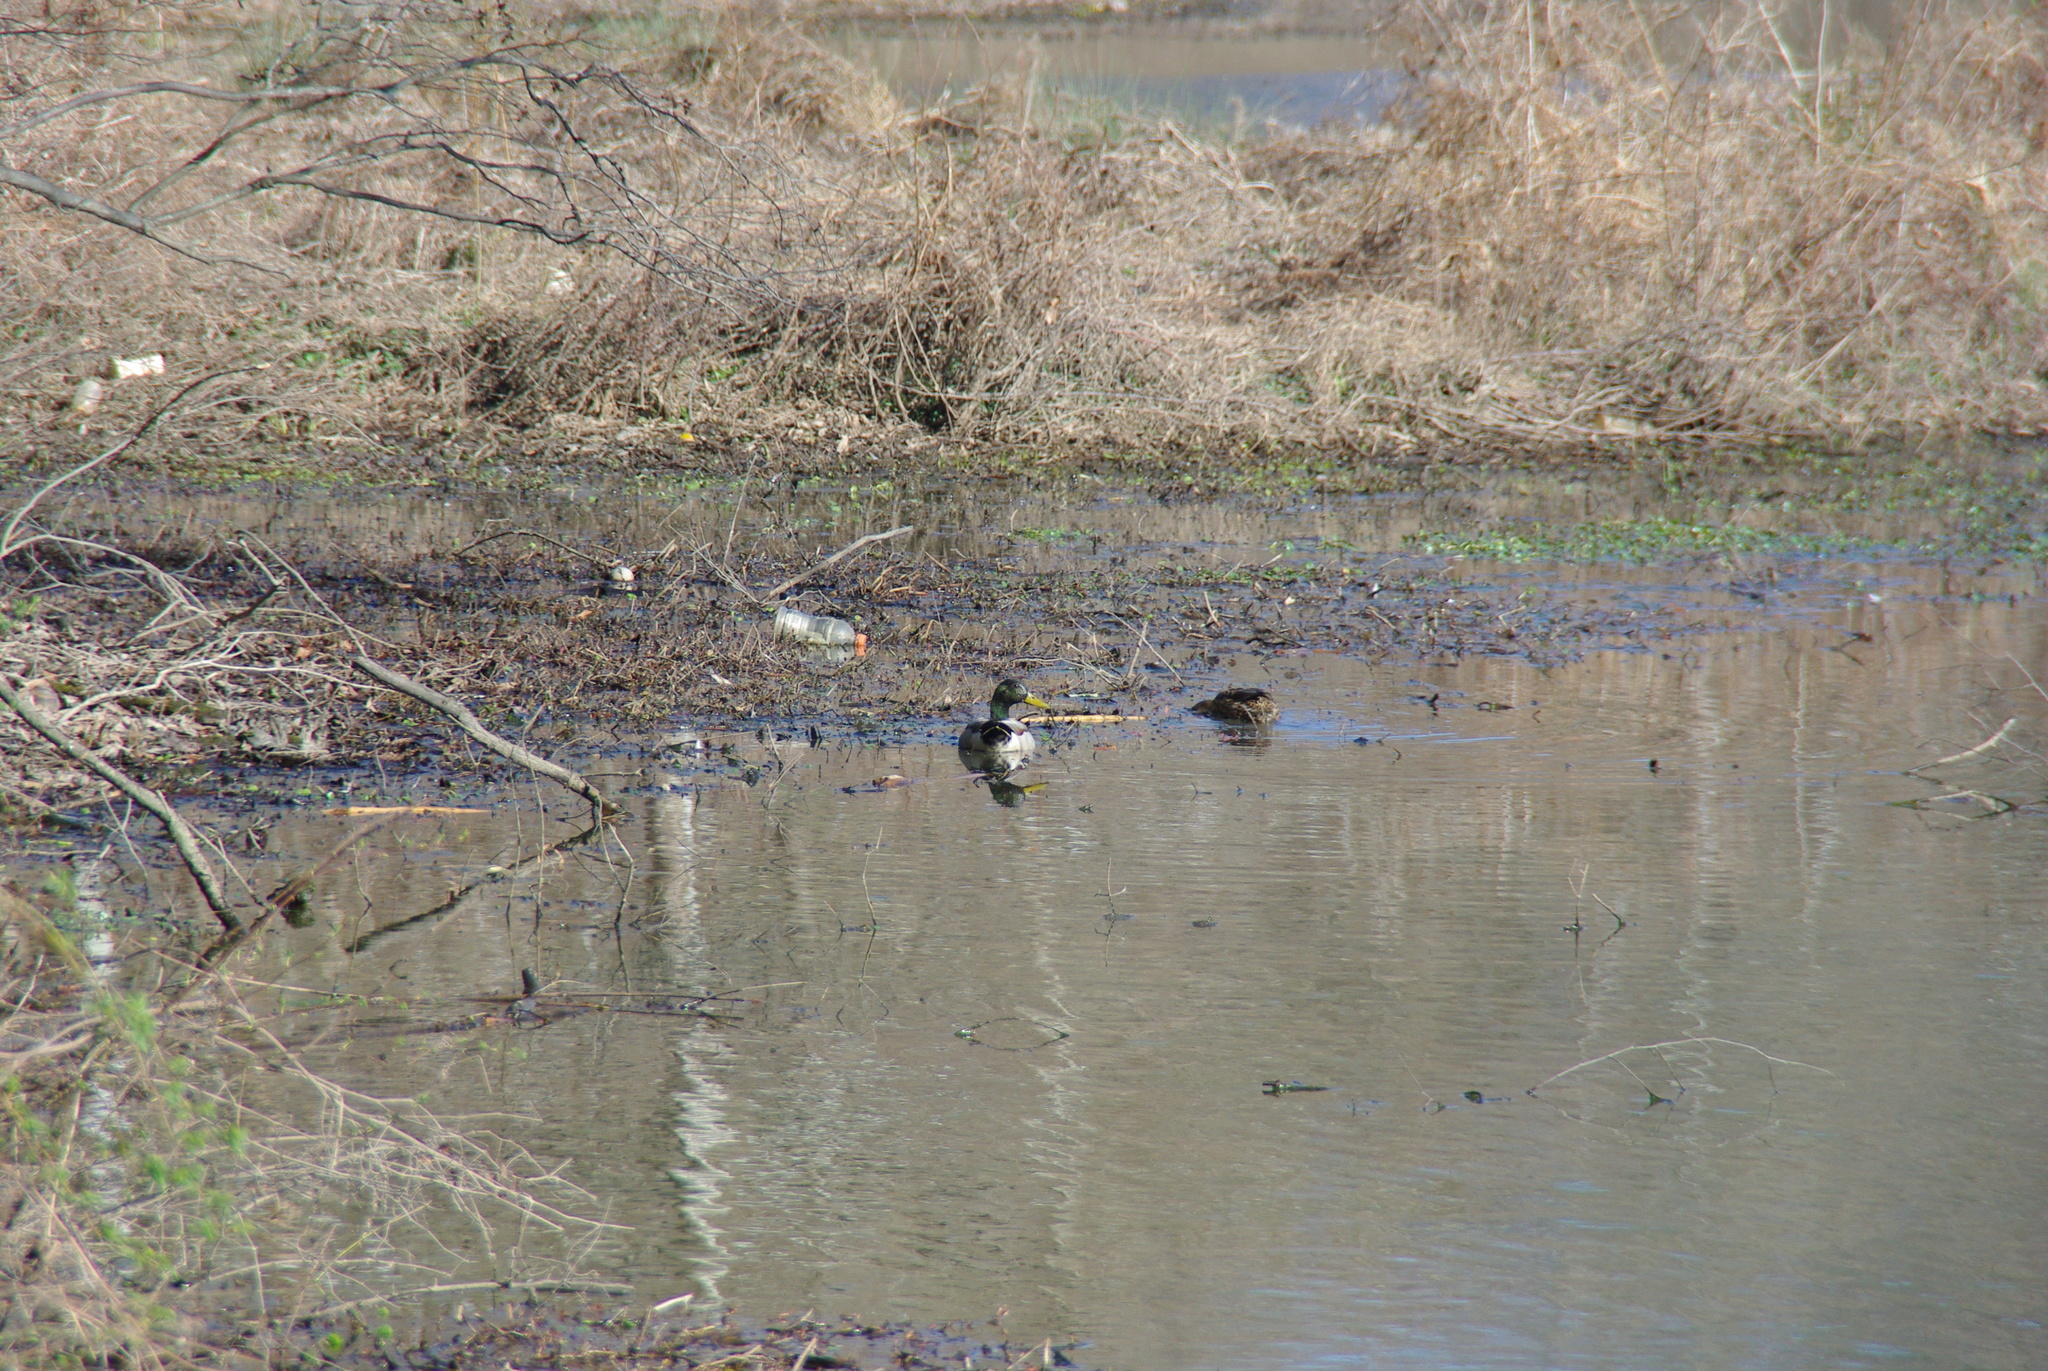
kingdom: Animalia
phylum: Chordata
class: Aves
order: Anseriformes
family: Anatidae
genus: Anas
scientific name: Anas platyrhynchos
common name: Mallard
